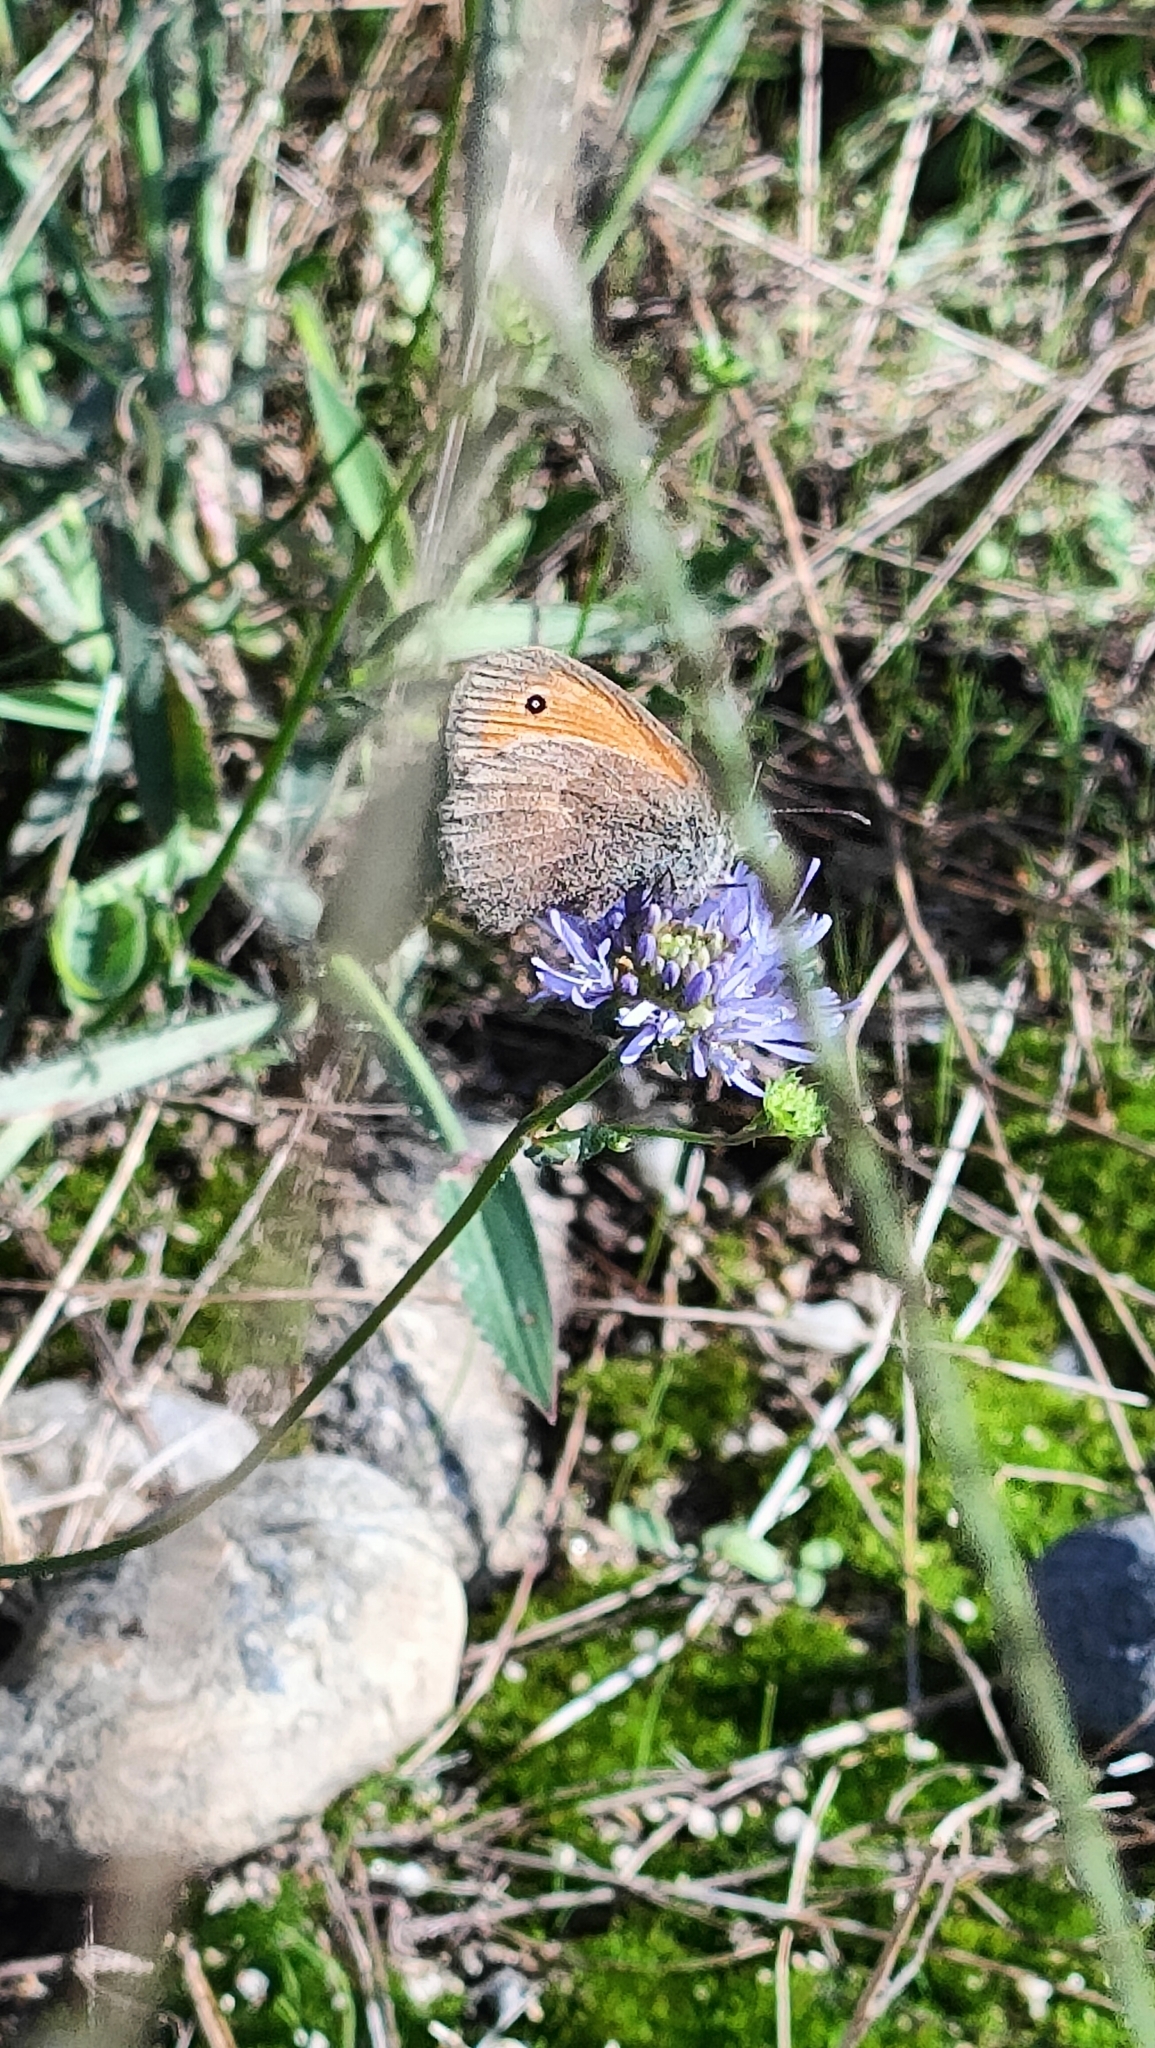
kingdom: Animalia
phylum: Arthropoda
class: Insecta
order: Lepidoptera
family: Nymphalidae
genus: Coenonympha
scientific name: Coenonympha pamphilus
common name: Small heath
